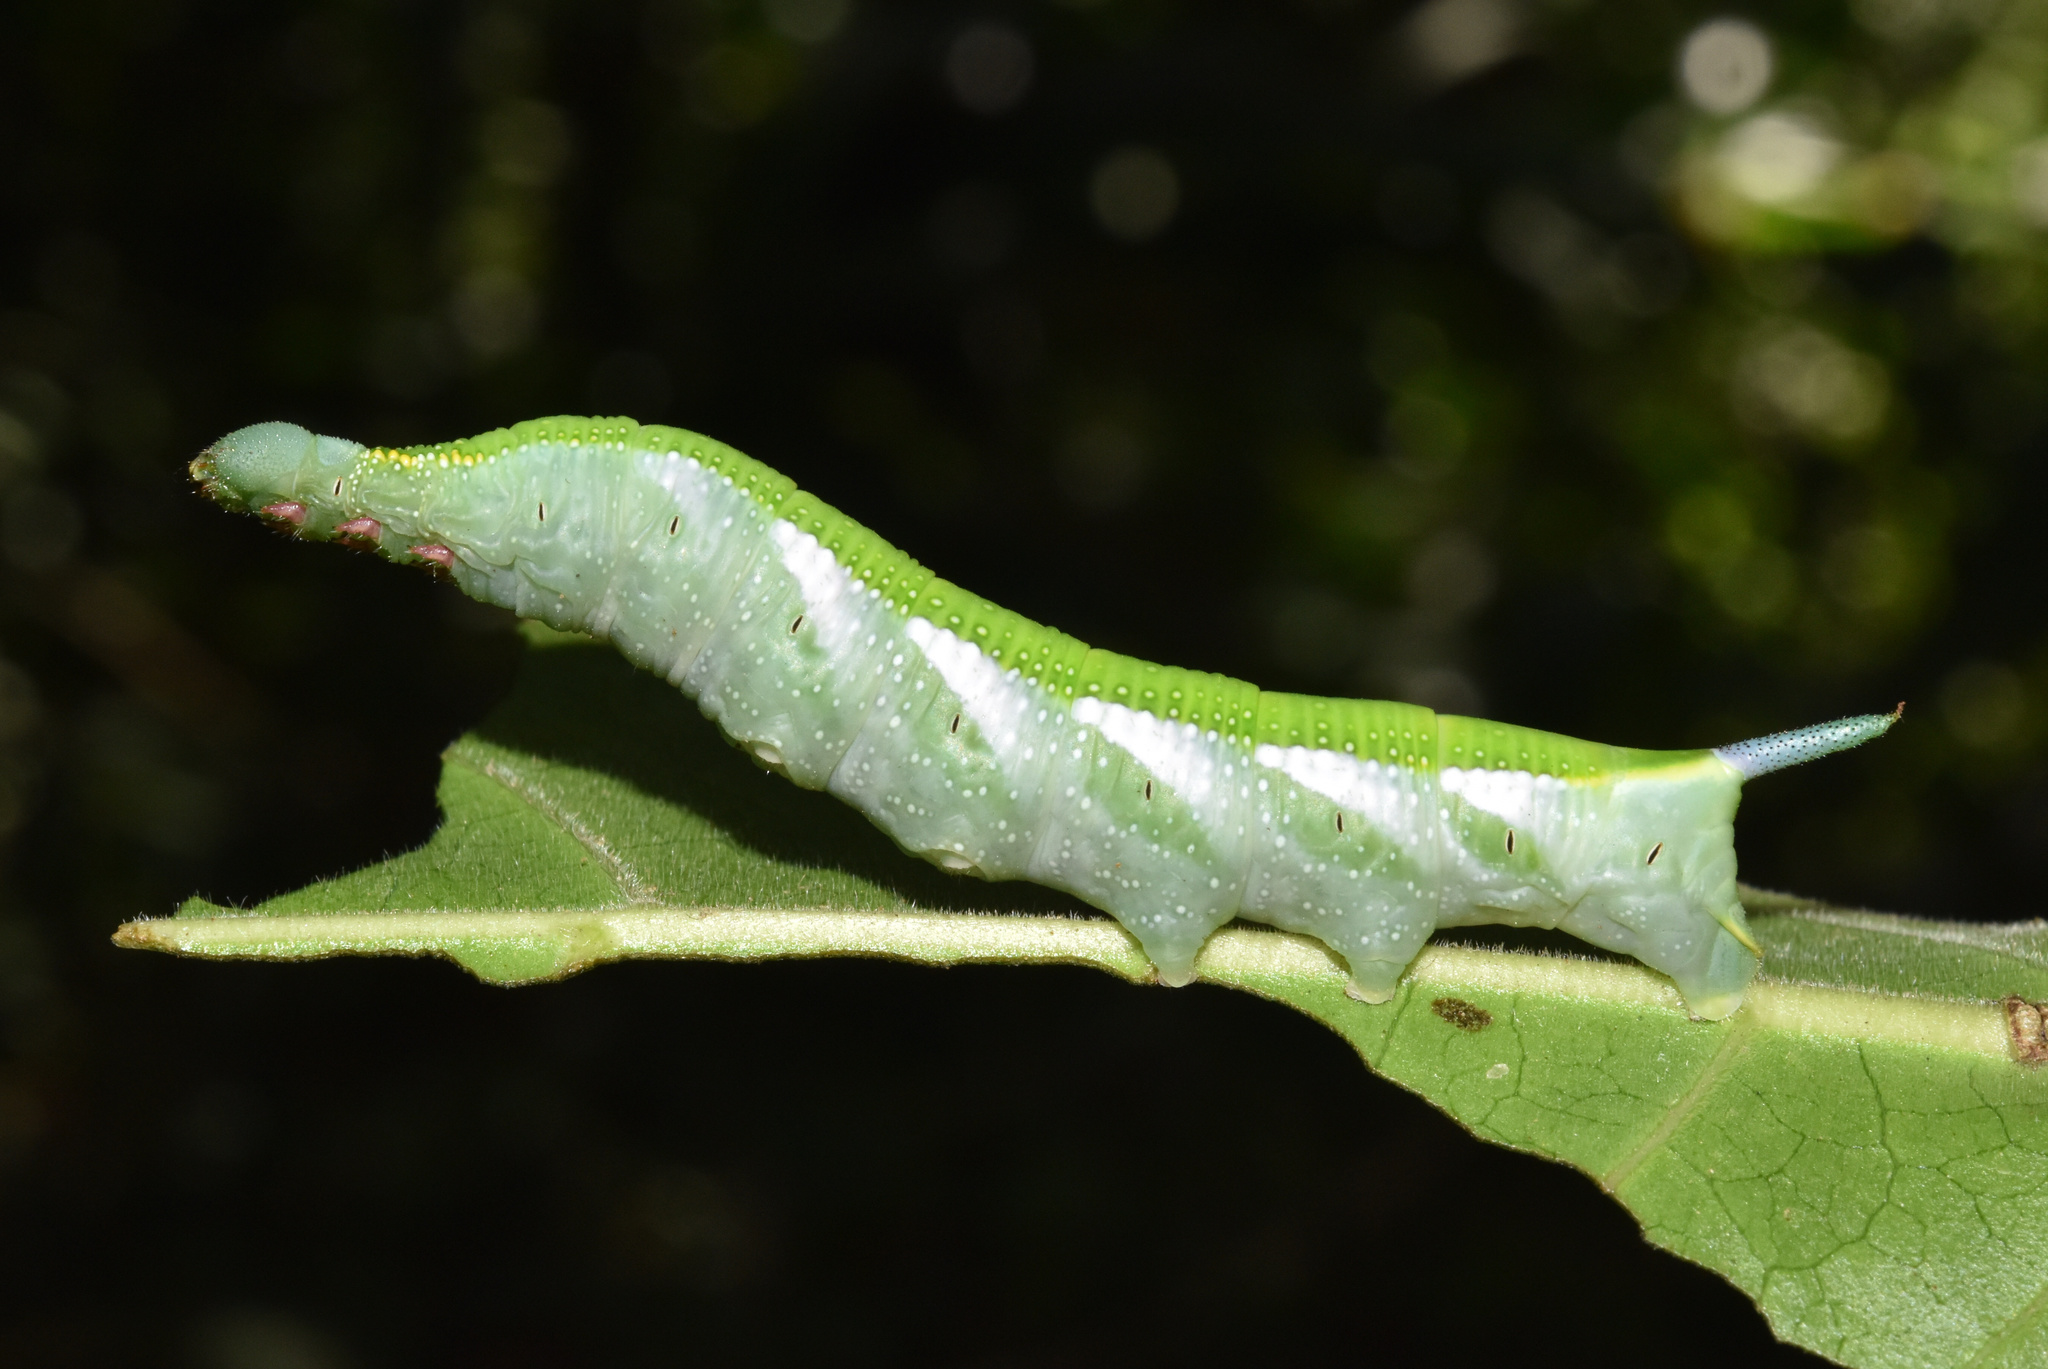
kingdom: Animalia
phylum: Arthropoda
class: Insecta
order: Lepidoptera
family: Sphingidae
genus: Temnora
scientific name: Temnora marginata
